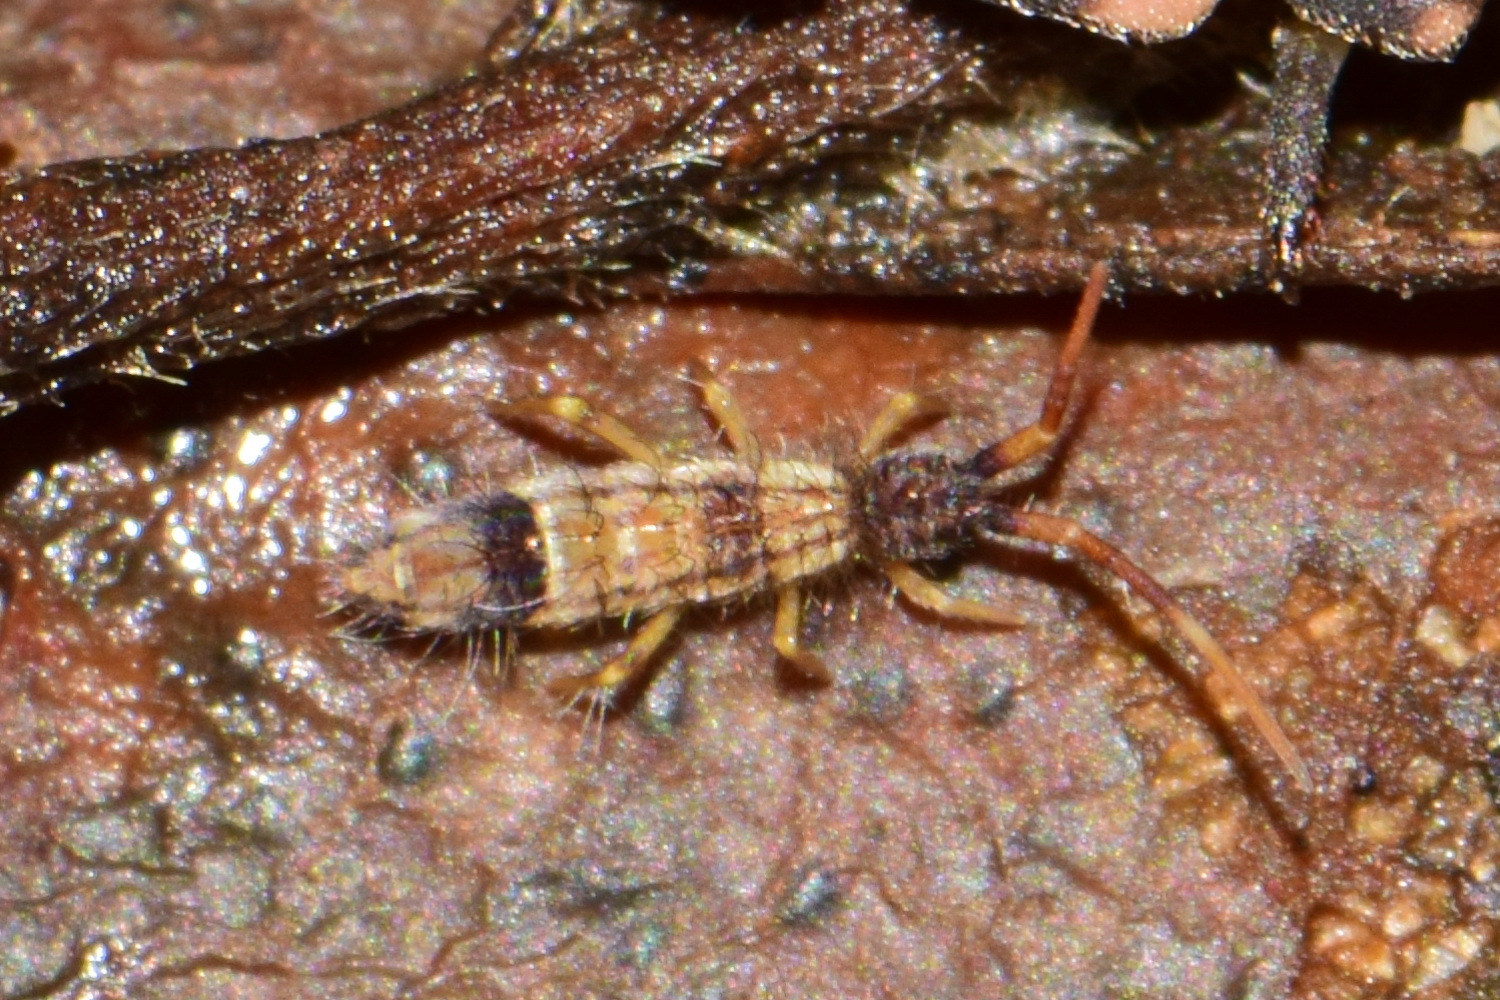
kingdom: Animalia
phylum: Arthropoda
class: Collembola
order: Entomobryomorpha
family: Entomobryidae
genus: Entomobrya
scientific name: Entomobrya nivalis
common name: Cosmopolitan springtail
